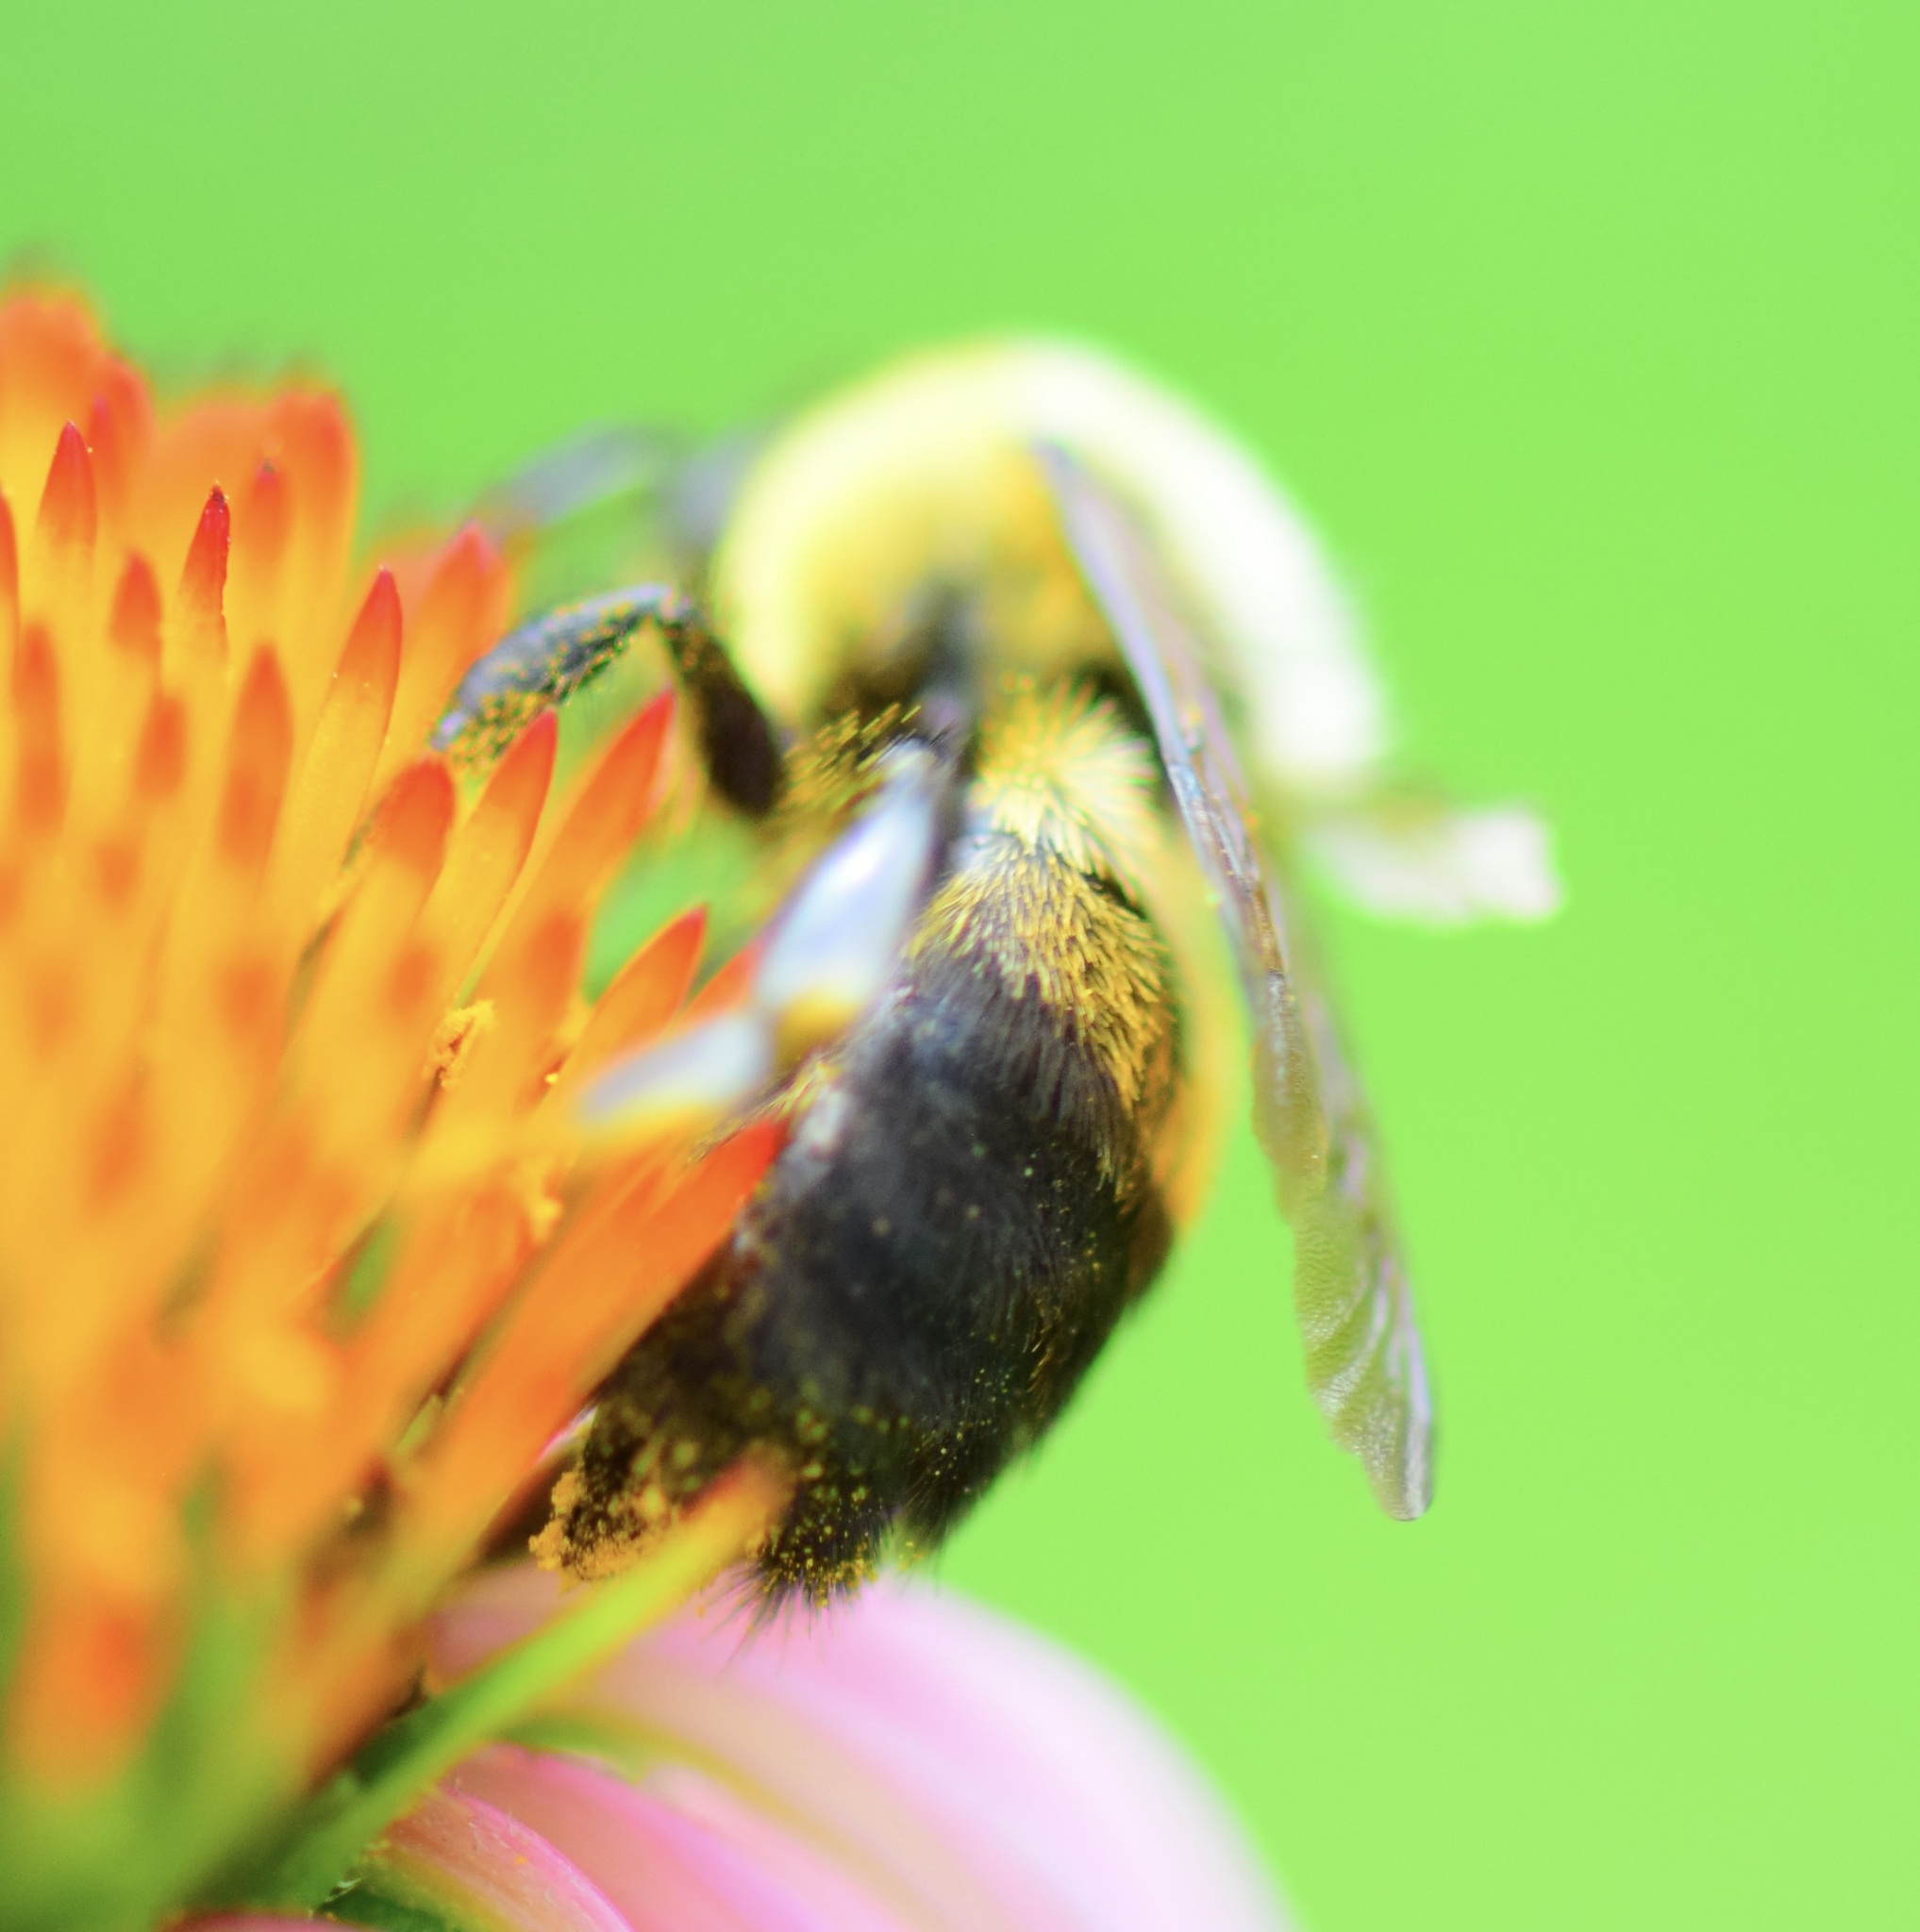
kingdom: Animalia
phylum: Arthropoda
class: Insecta
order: Hymenoptera
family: Apidae
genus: Bombus
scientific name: Bombus griseocollis
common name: Brown-belted bumble bee
